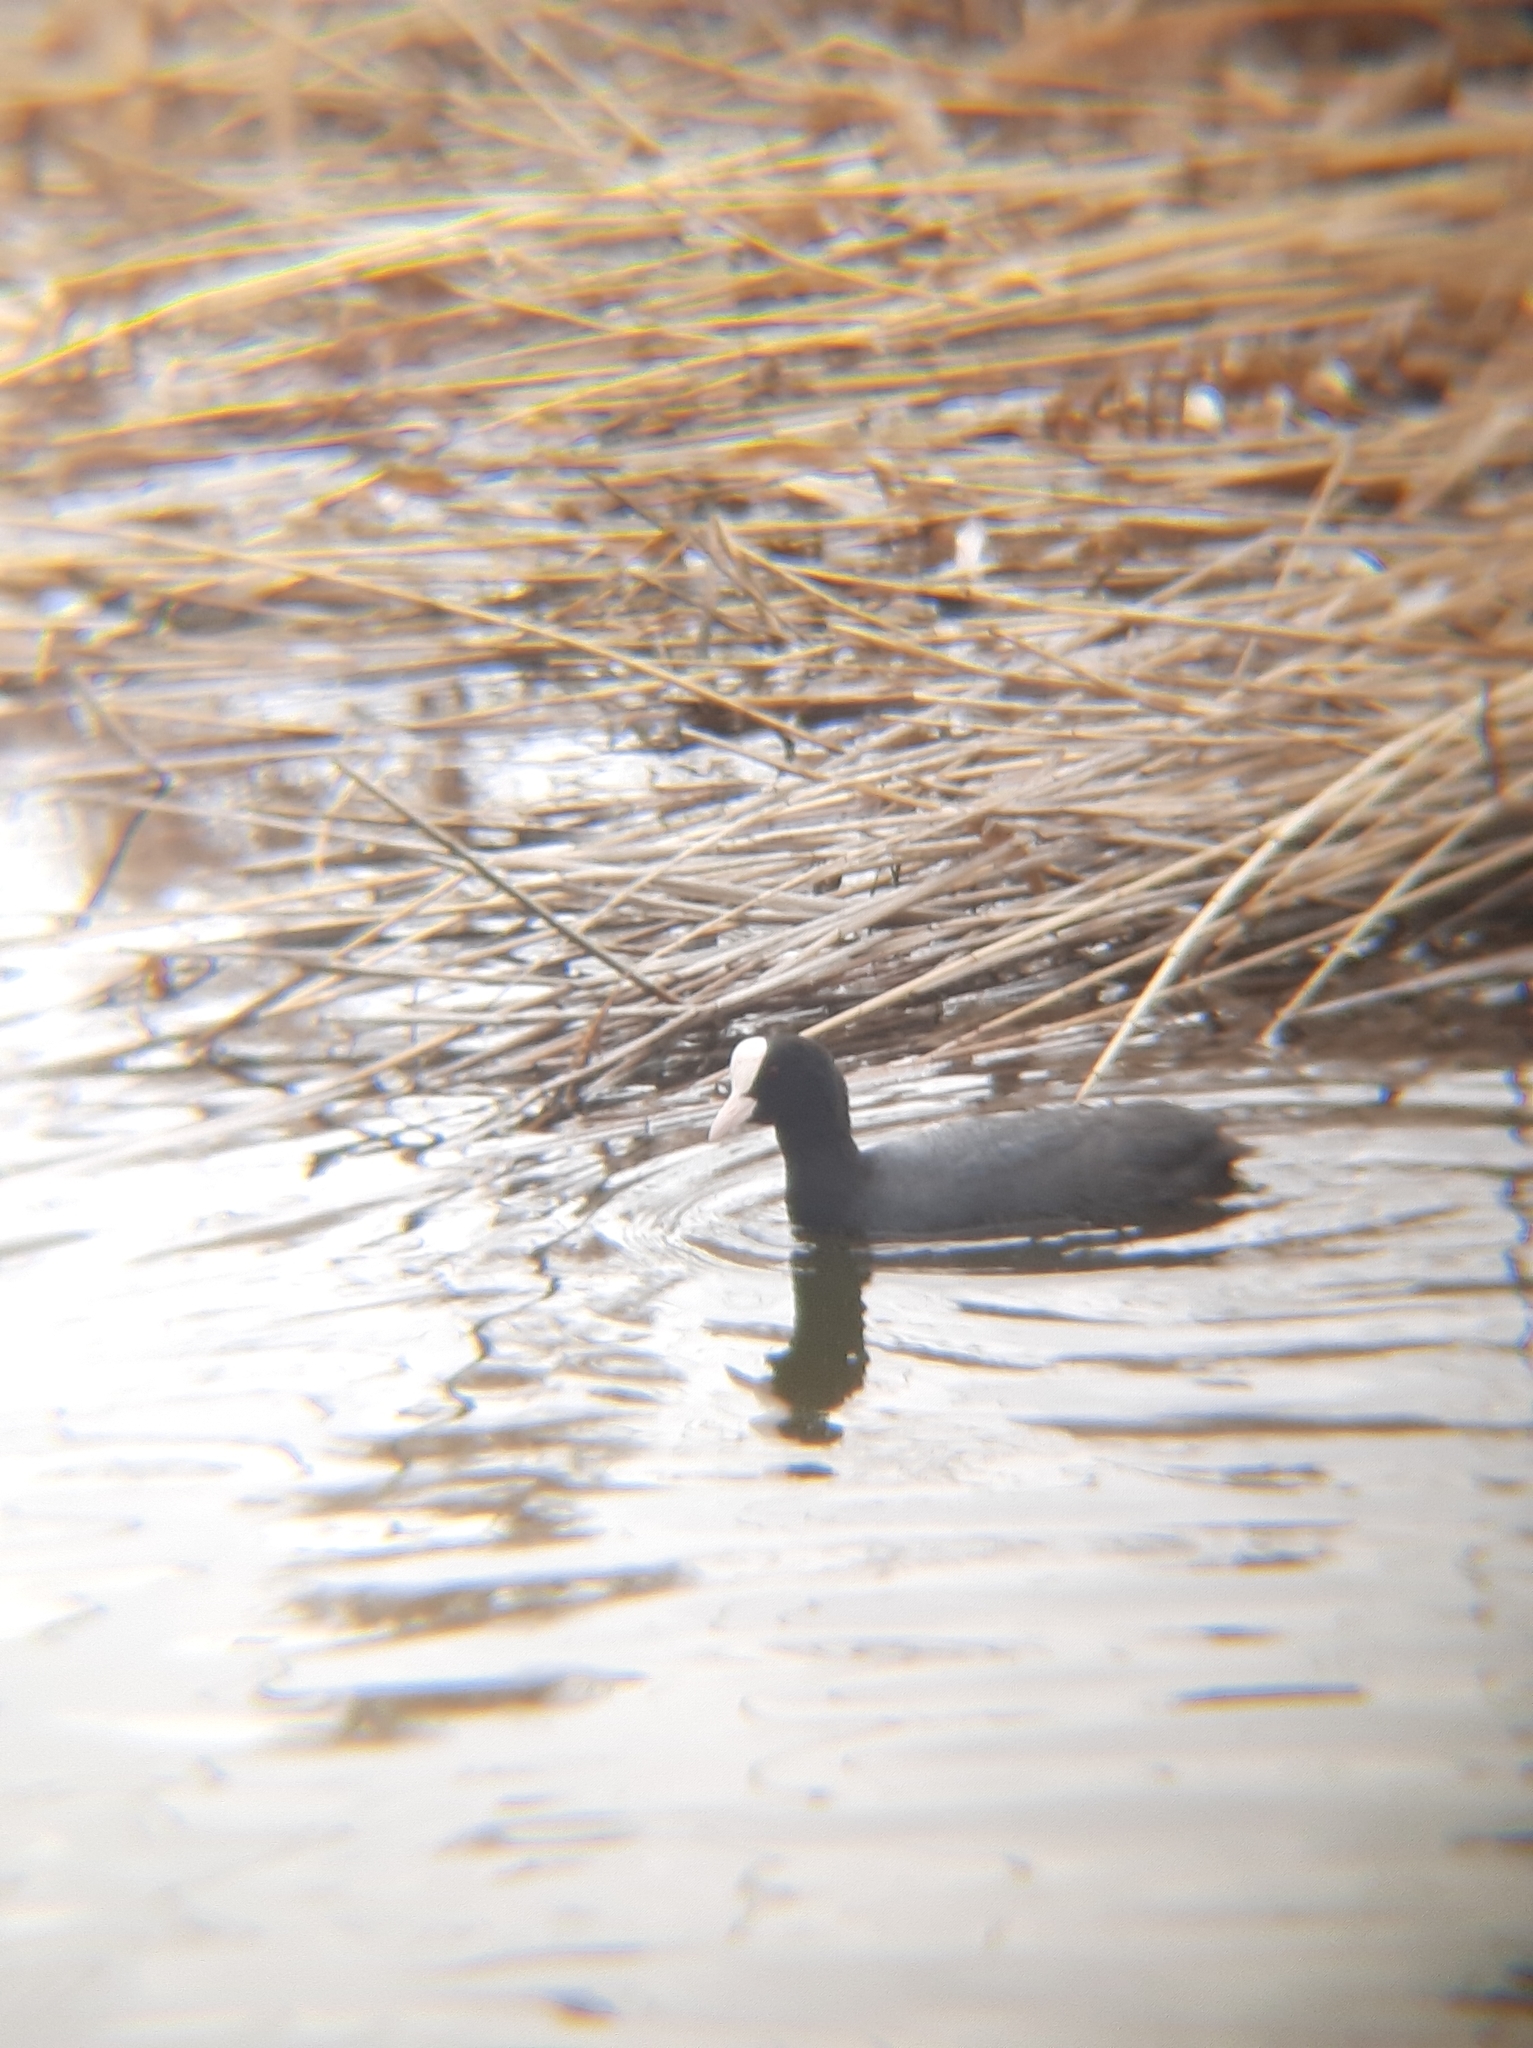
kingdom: Animalia
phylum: Chordata
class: Aves
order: Gruiformes
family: Rallidae
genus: Fulica
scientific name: Fulica atra
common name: Eurasian coot
